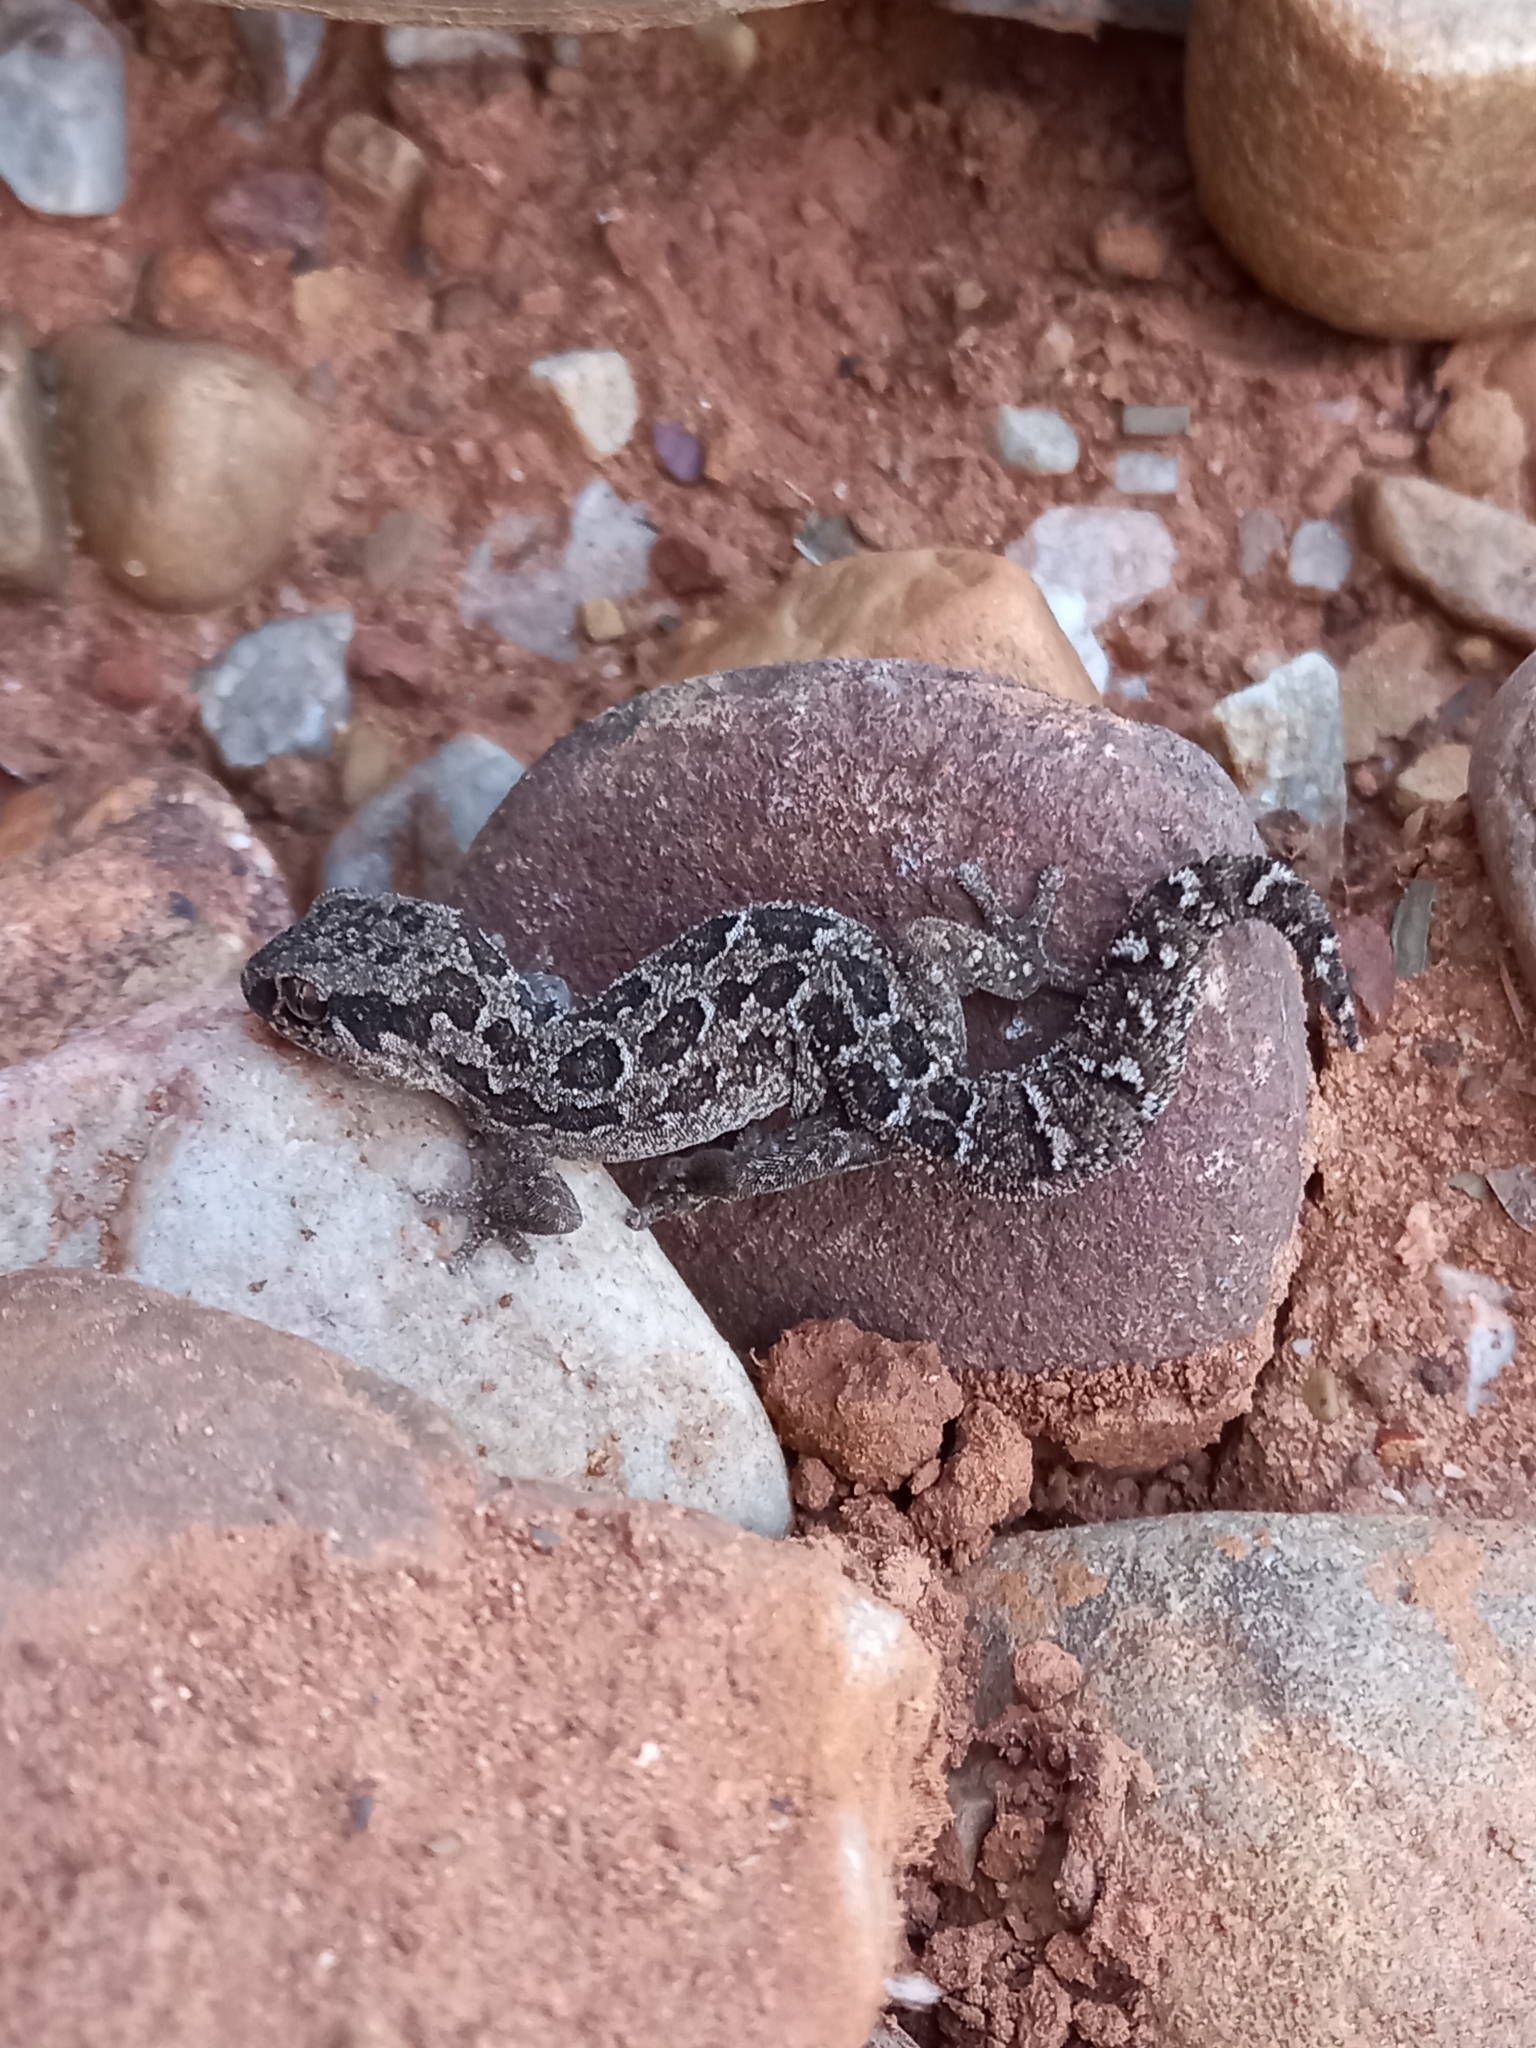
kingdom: Animalia
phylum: Chordata
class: Squamata
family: Gekkonidae
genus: Pachydactylus
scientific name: Pachydactylus maculatus
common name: Spotted thick-toed gecko
